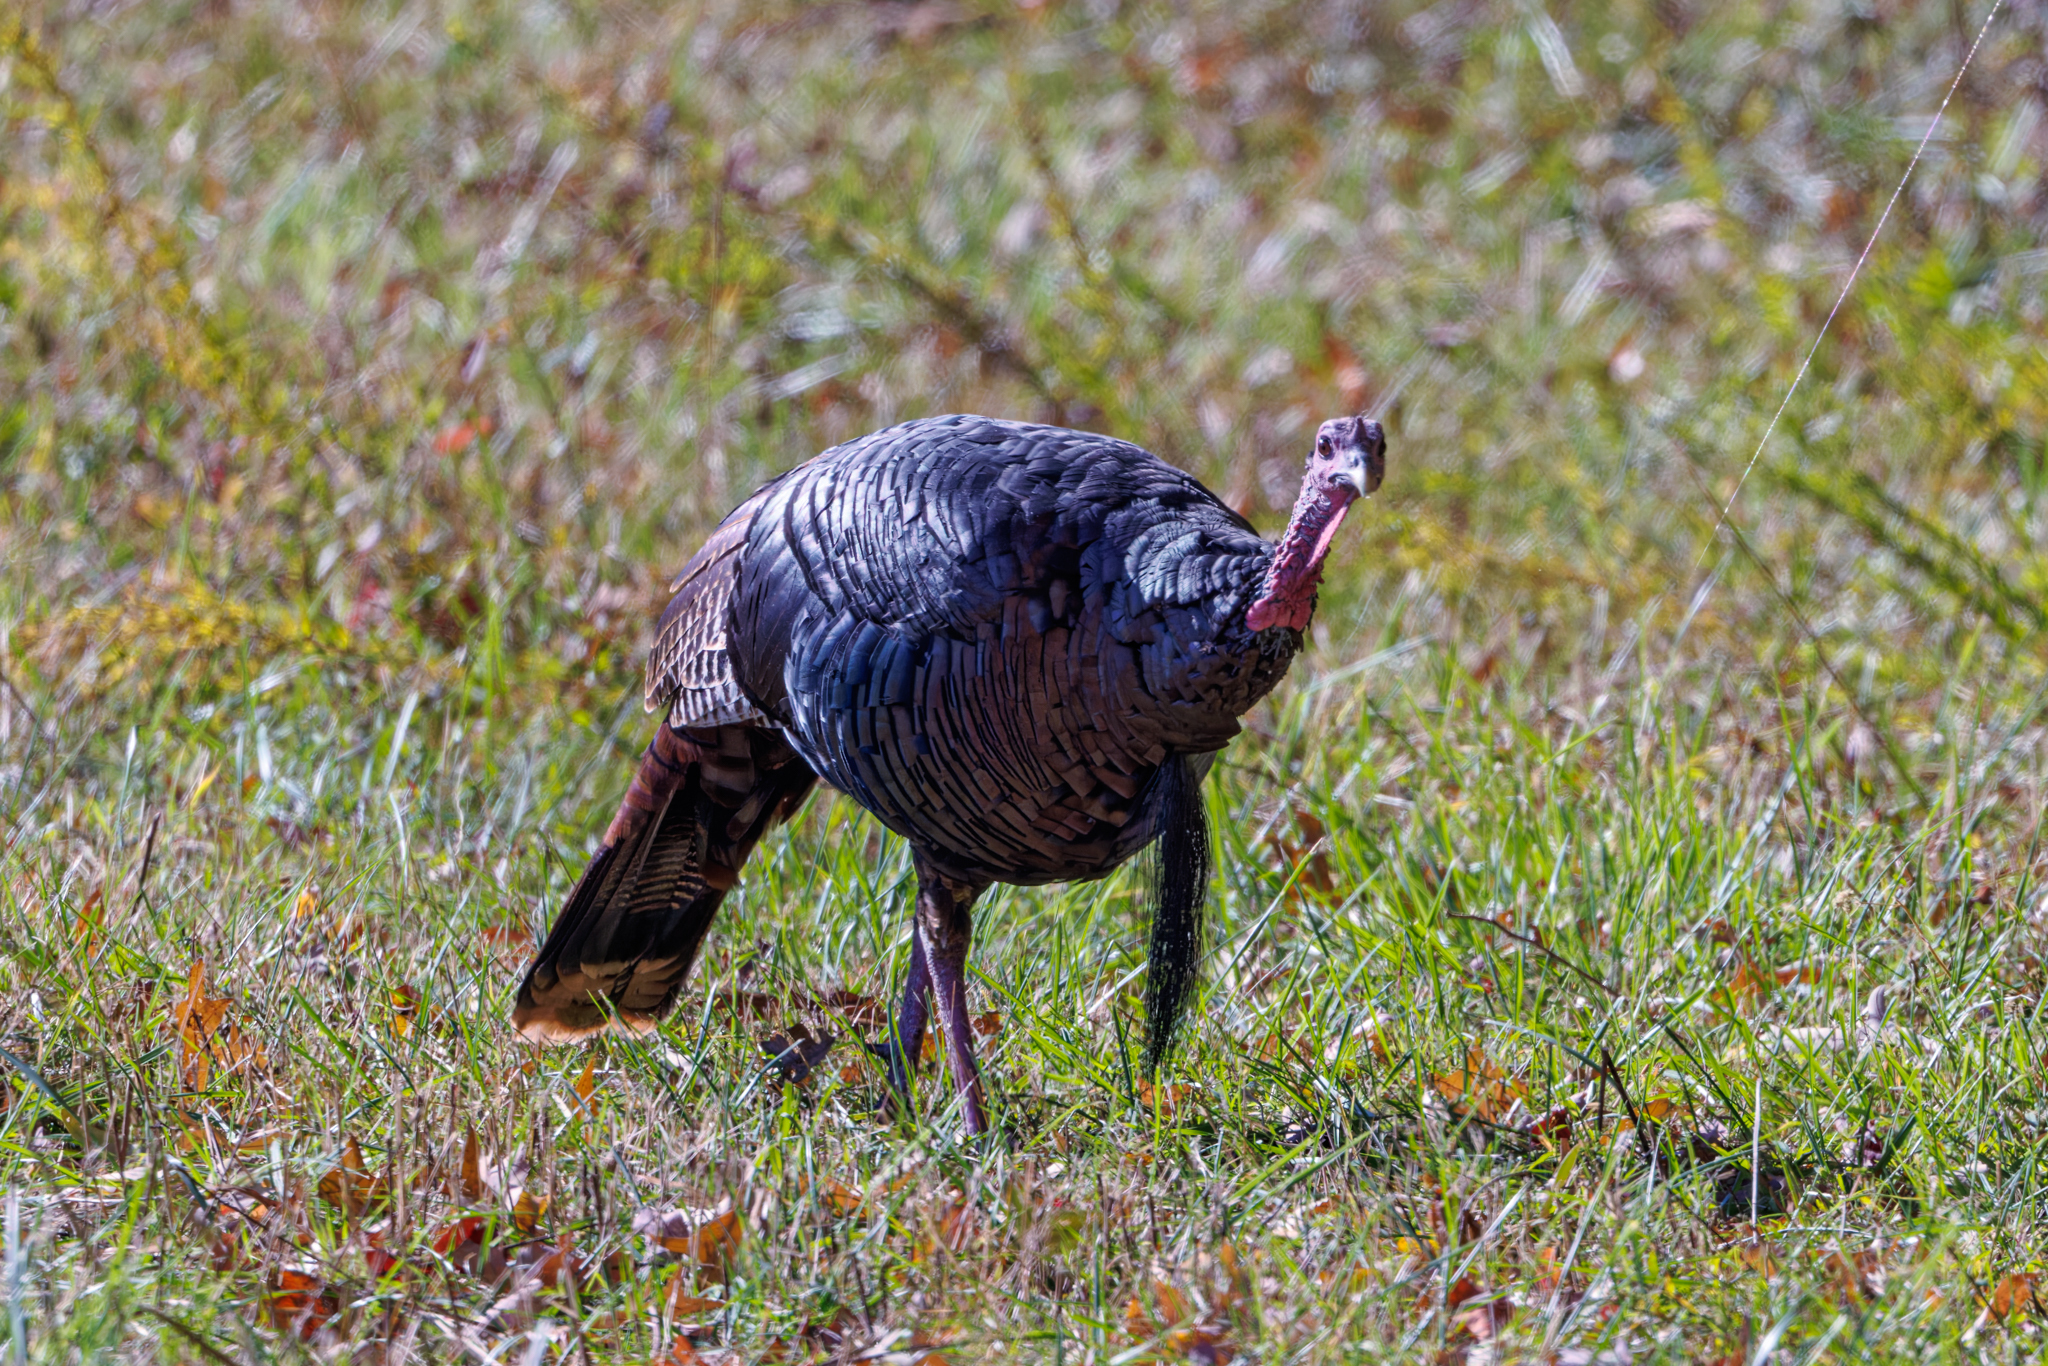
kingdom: Animalia
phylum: Chordata
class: Aves
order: Galliformes
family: Phasianidae
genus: Meleagris
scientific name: Meleagris gallopavo
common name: Wild turkey
